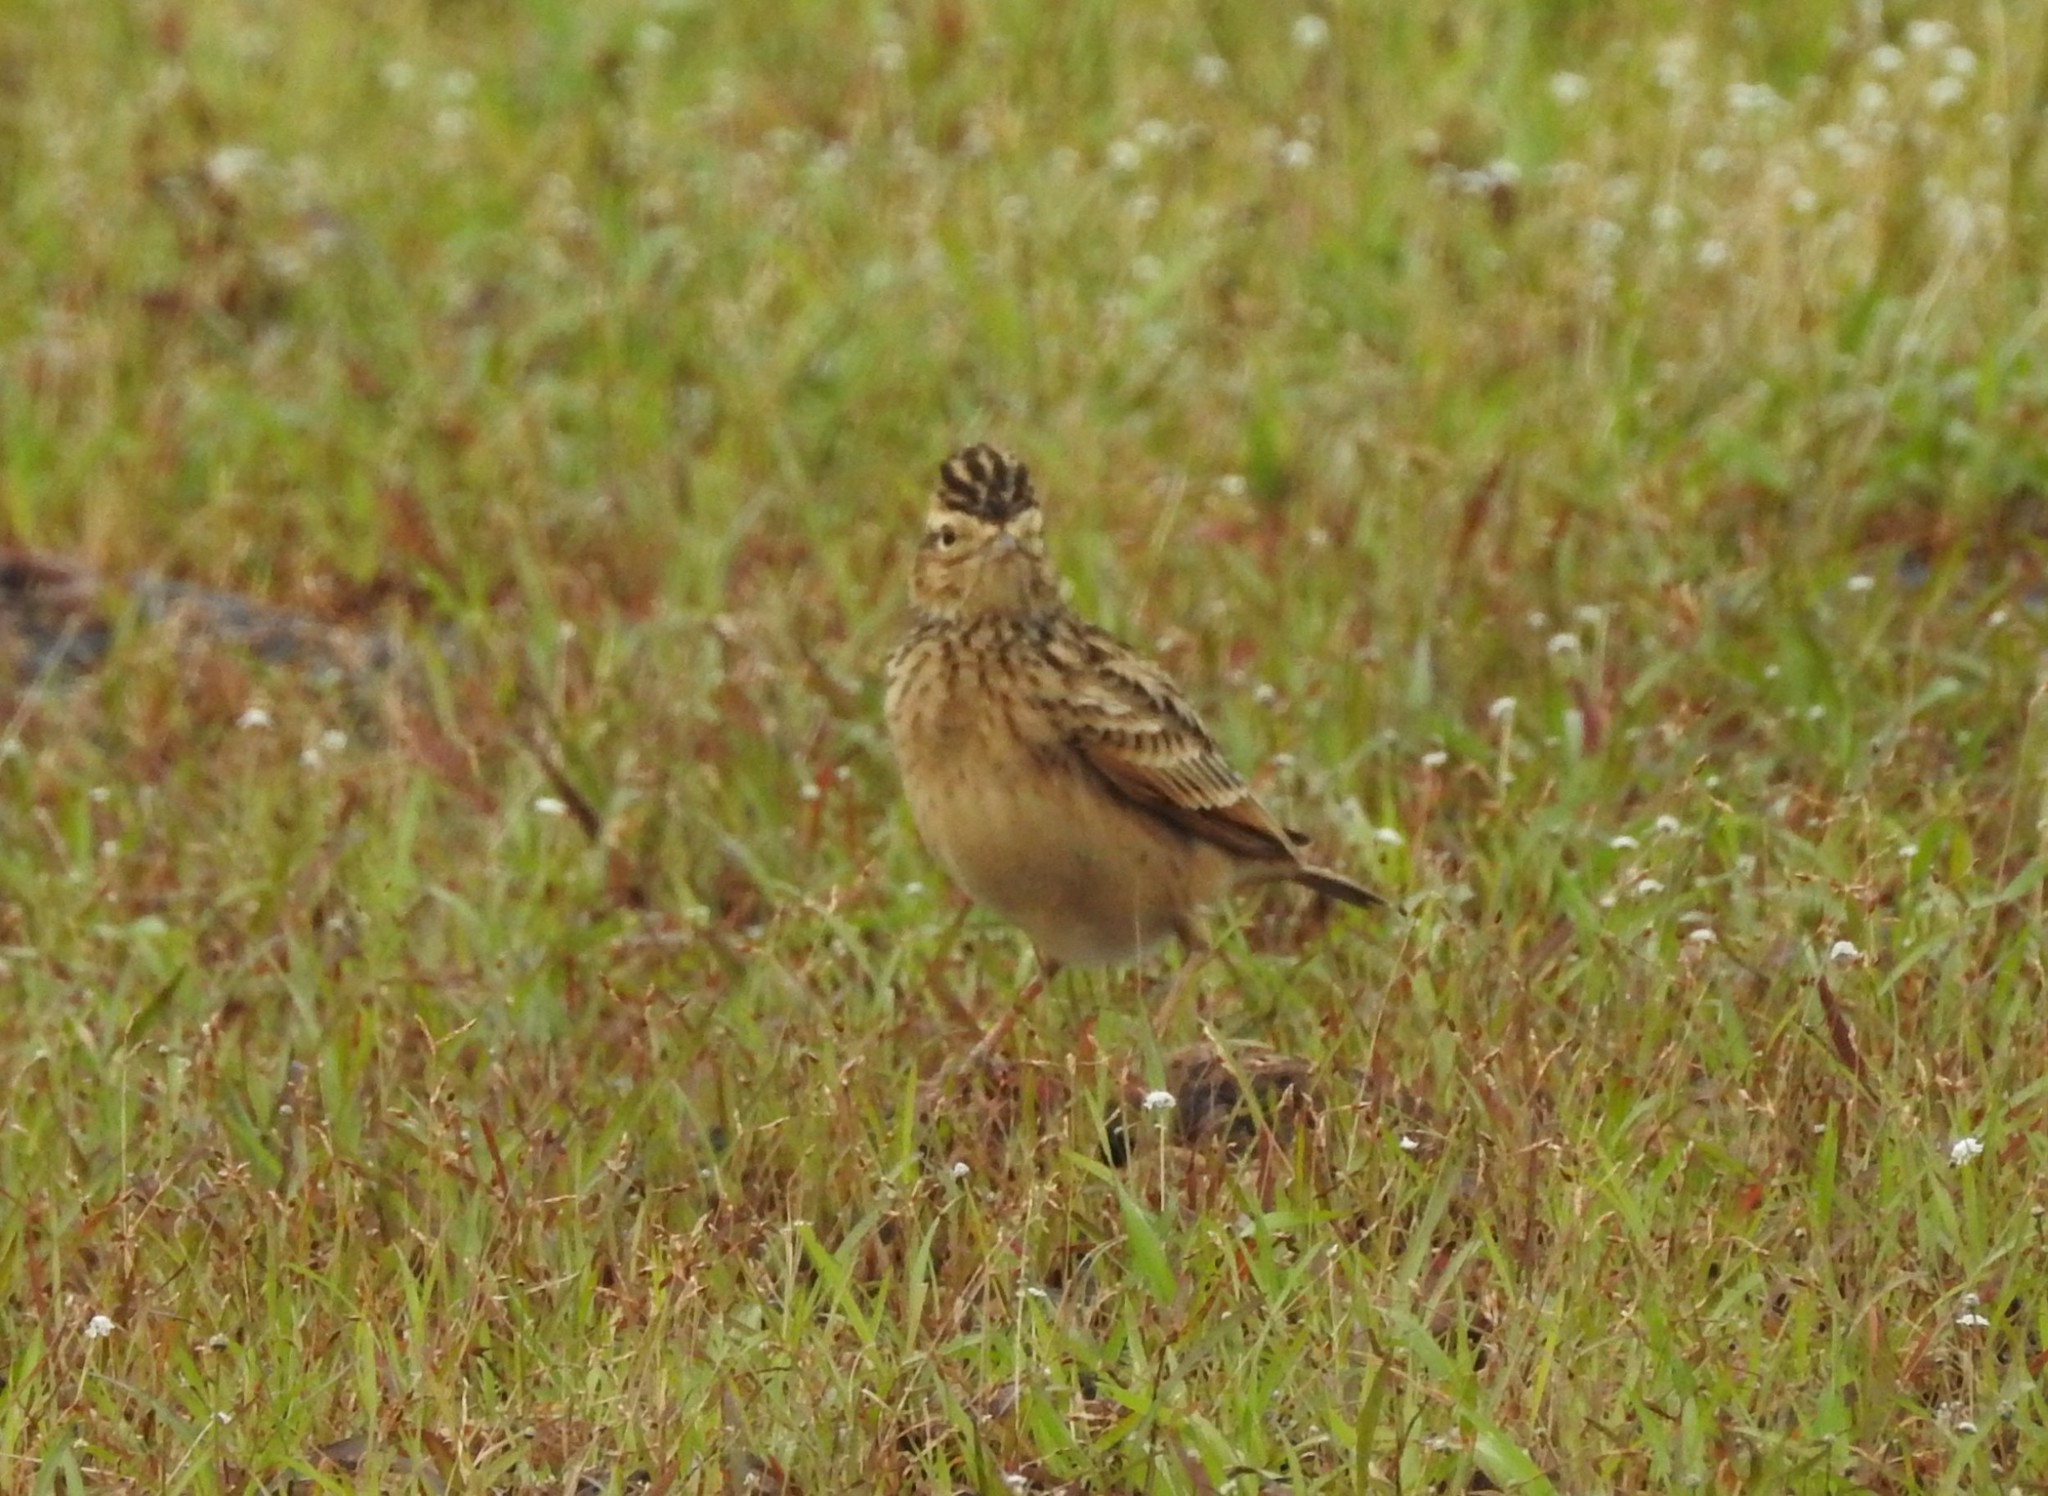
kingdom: Animalia
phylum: Chordata
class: Aves
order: Passeriformes
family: Alaudidae
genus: Galerida
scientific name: Galerida malabarica
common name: Malabar lark
